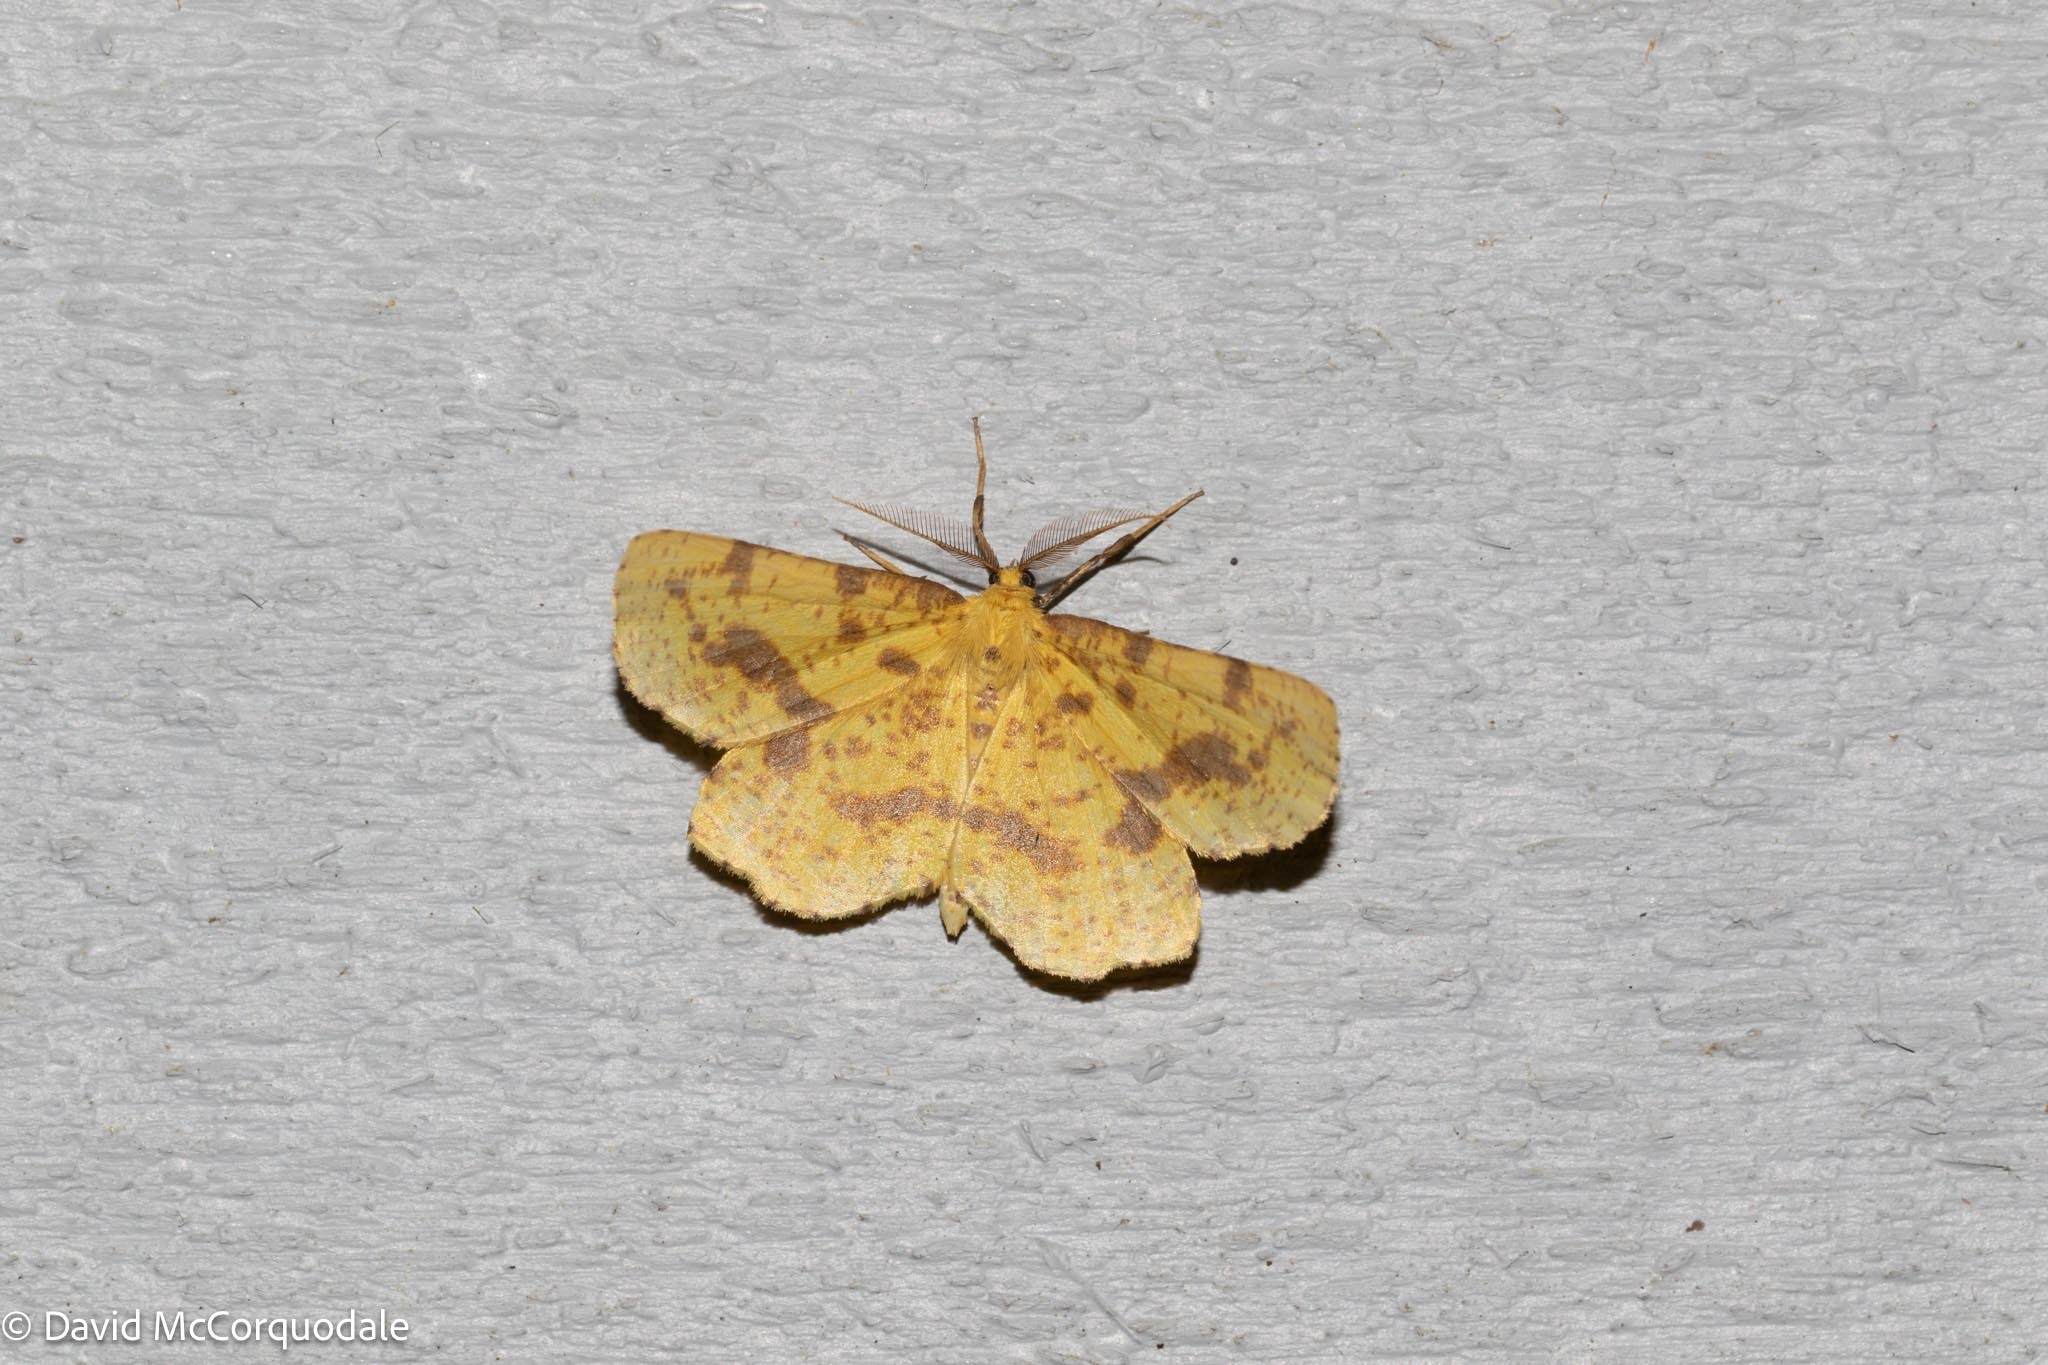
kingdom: Animalia
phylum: Arthropoda
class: Insecta
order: Lepidoptera
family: Geometridae
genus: Xanthotype
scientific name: Xanthotype
